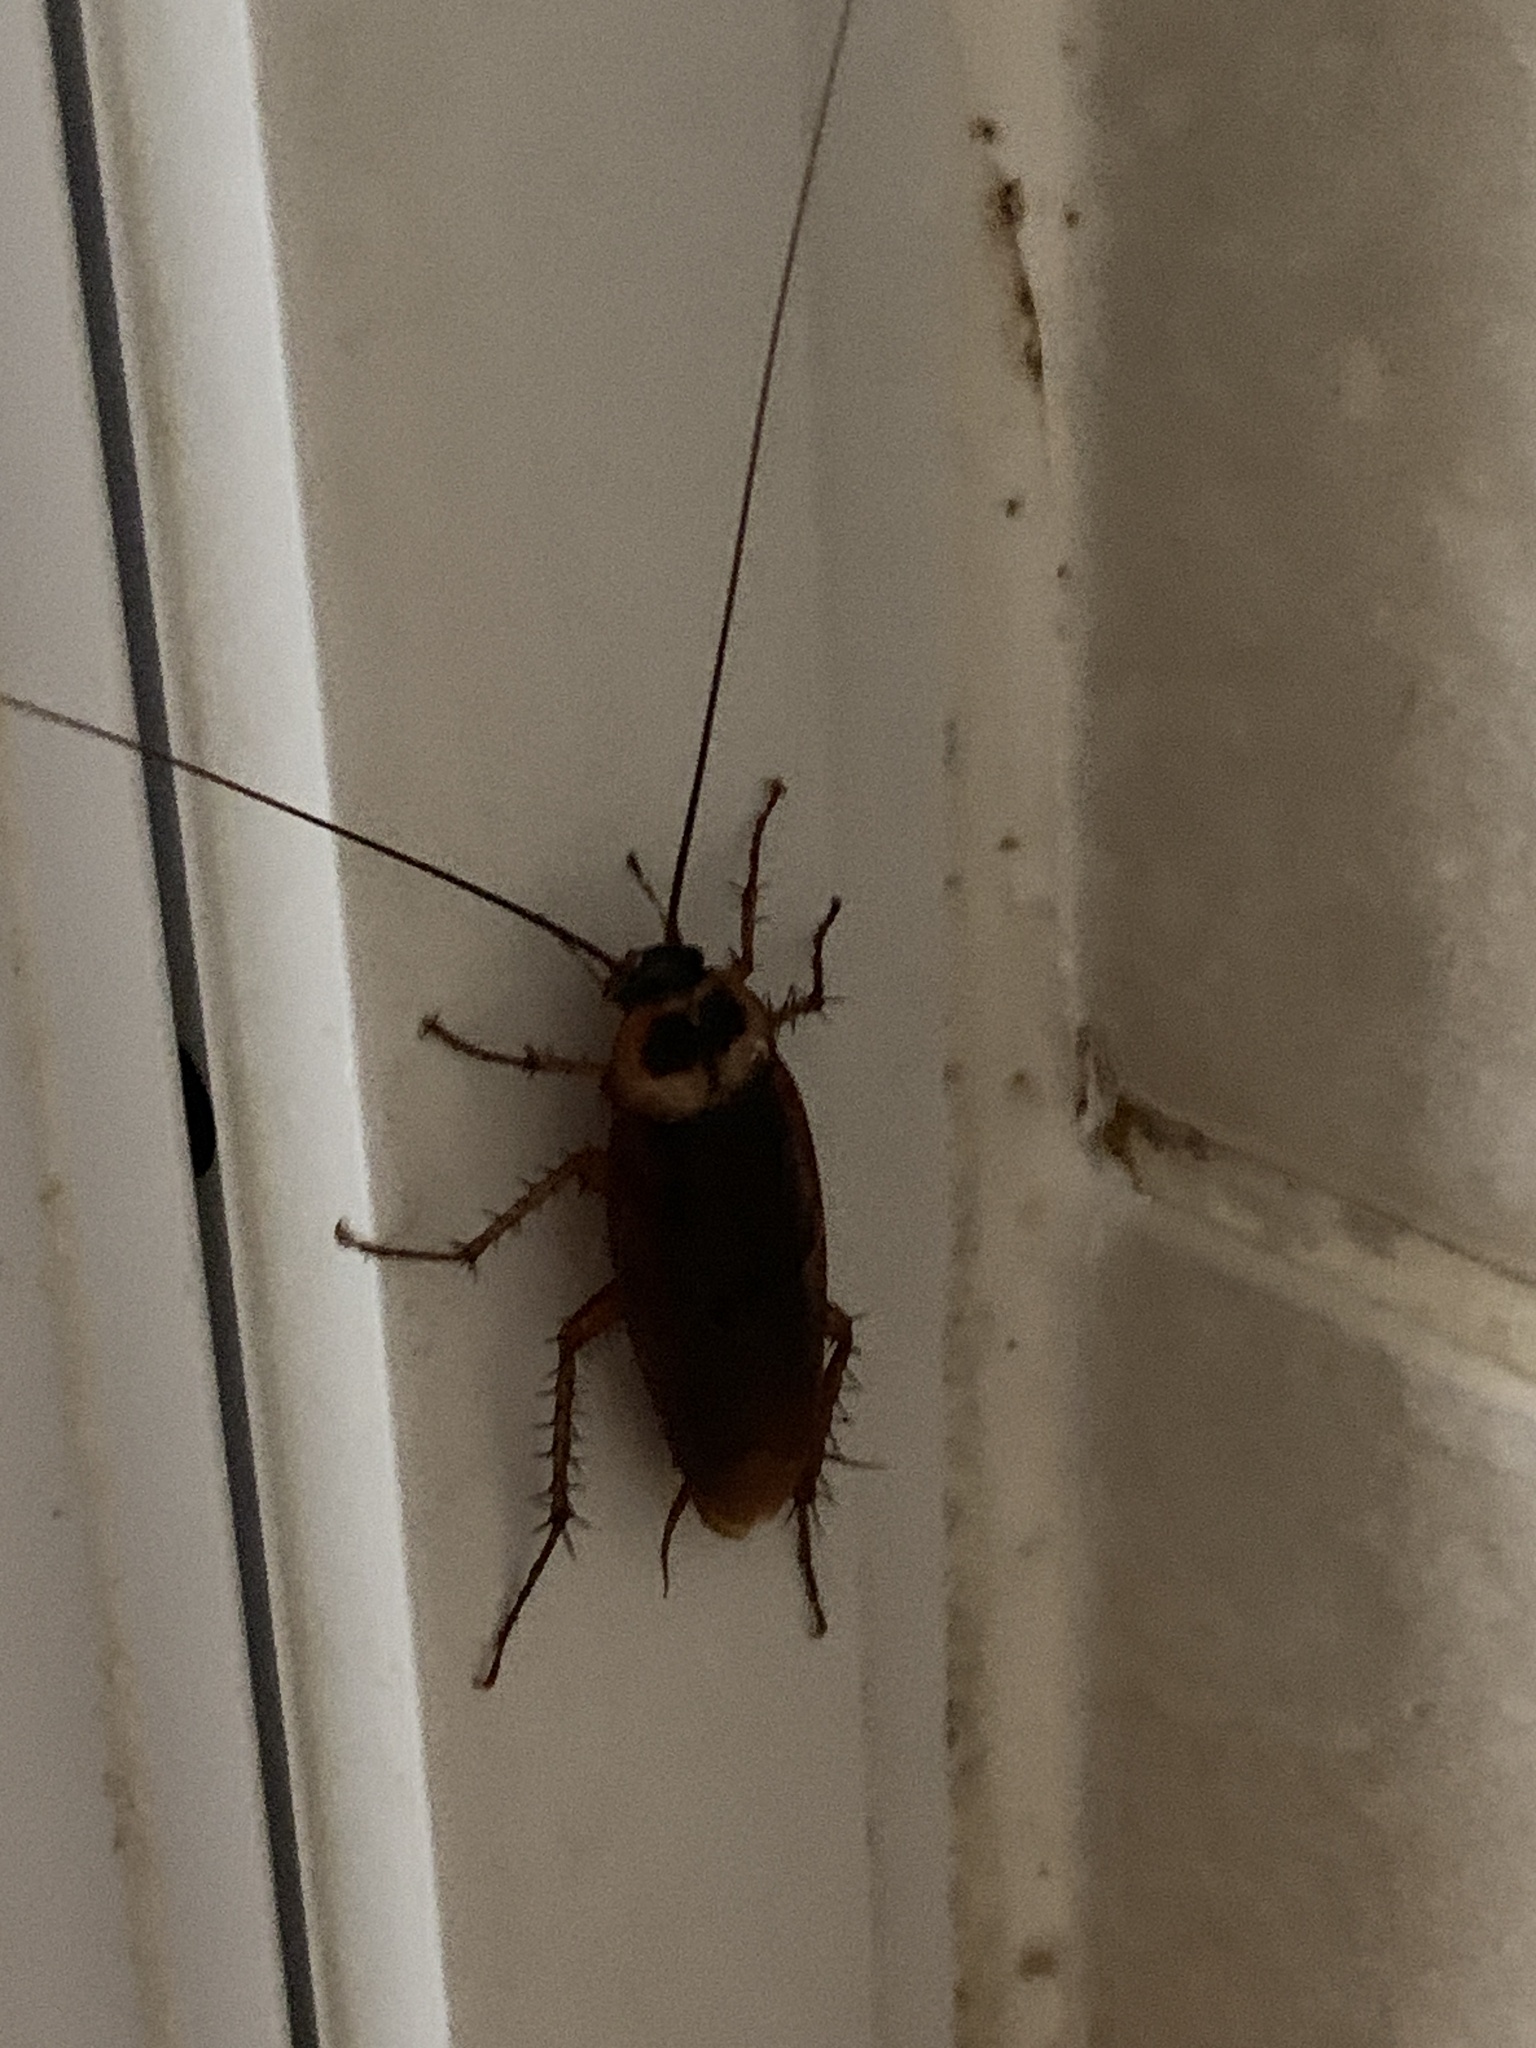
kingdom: Animalia
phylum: Arthropoda
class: Insecta
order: Blattodea
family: Blattidae
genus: Periplaneta
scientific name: Periplaneta americana
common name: American cockroach
